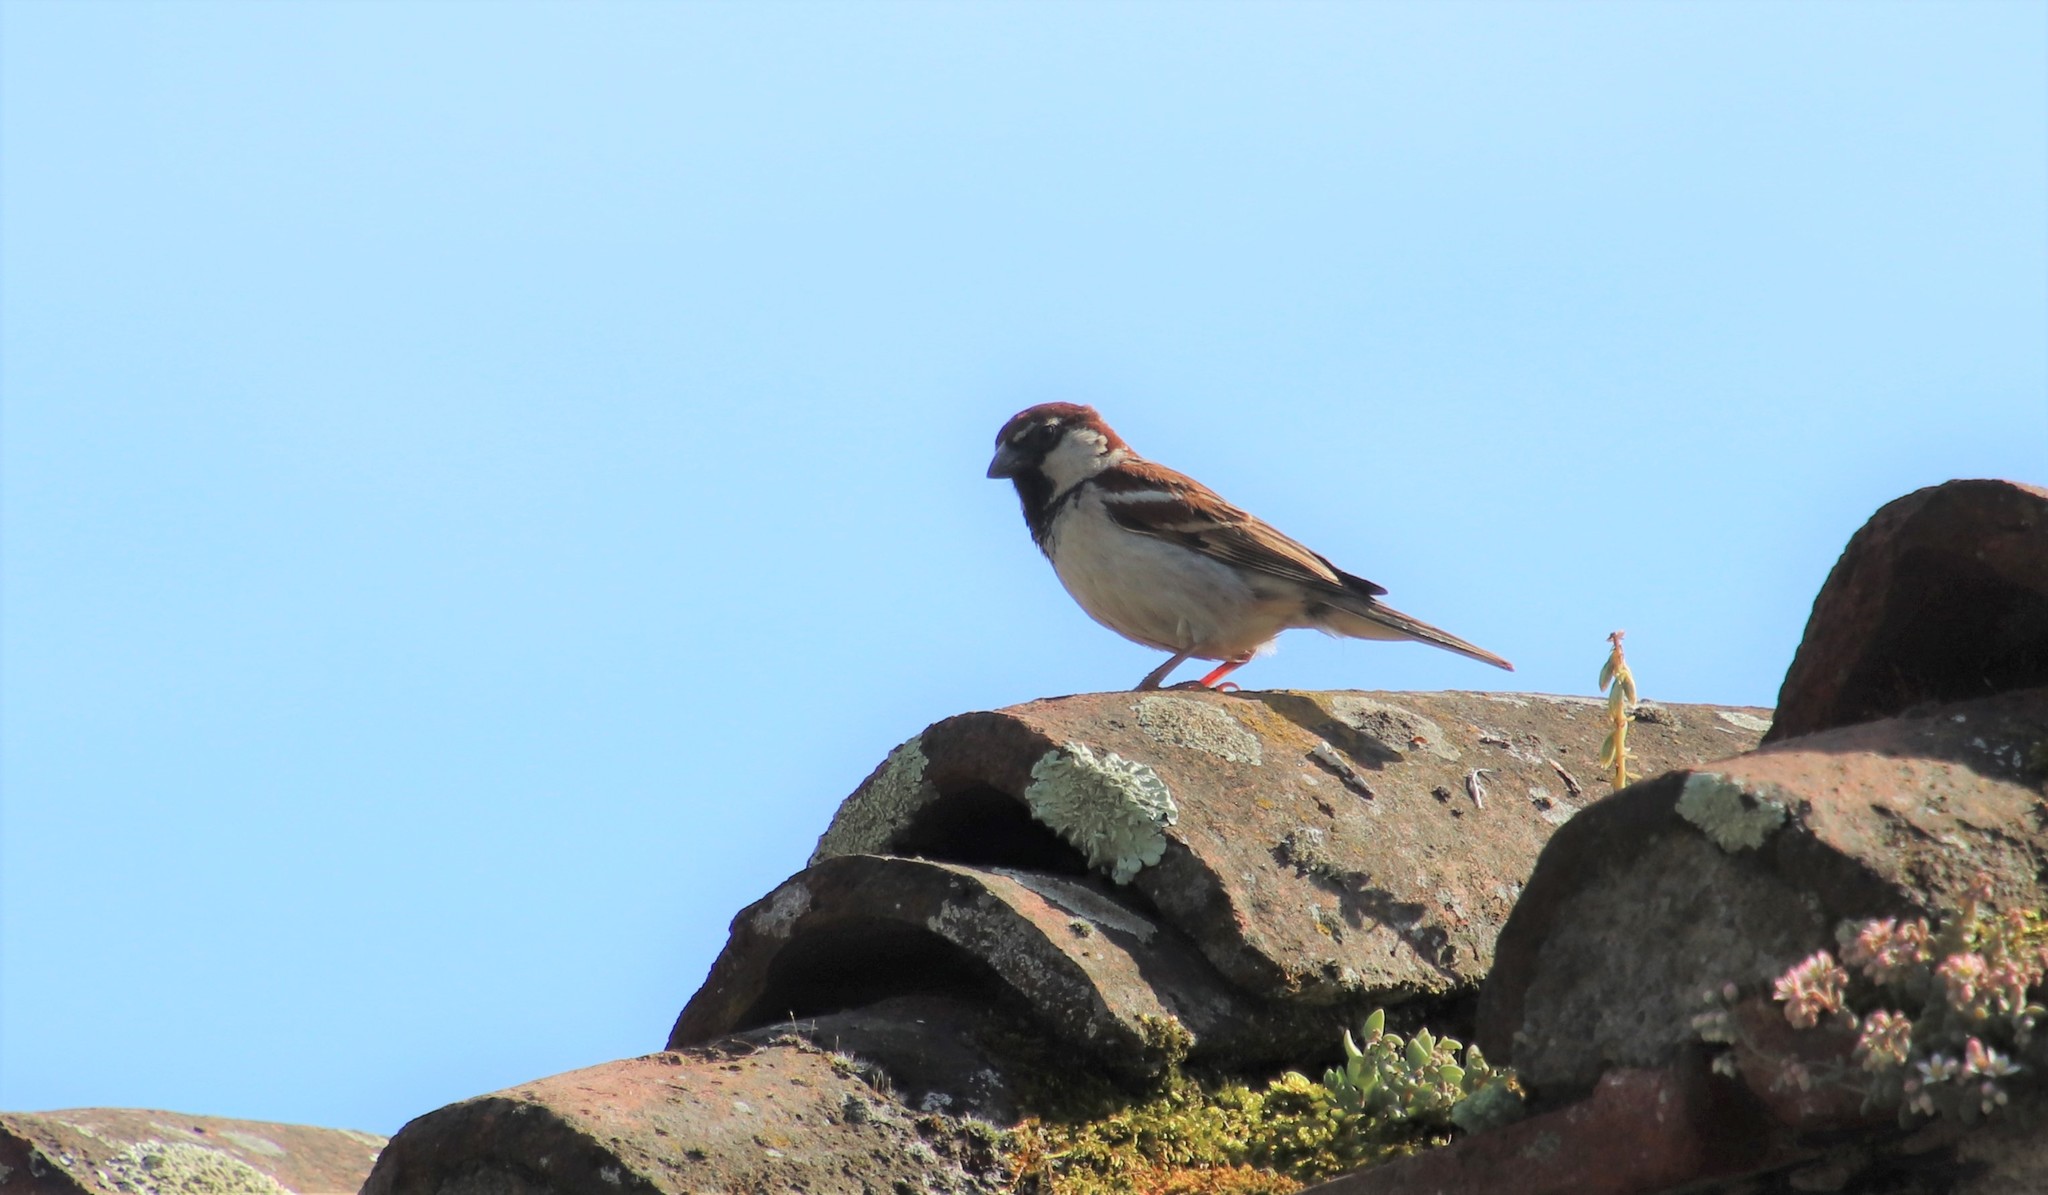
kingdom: Animalia
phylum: Chordata
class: Aves
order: Passeriformes
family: Passeridae
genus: Passer
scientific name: Passer italiae
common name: Italian sparrow
